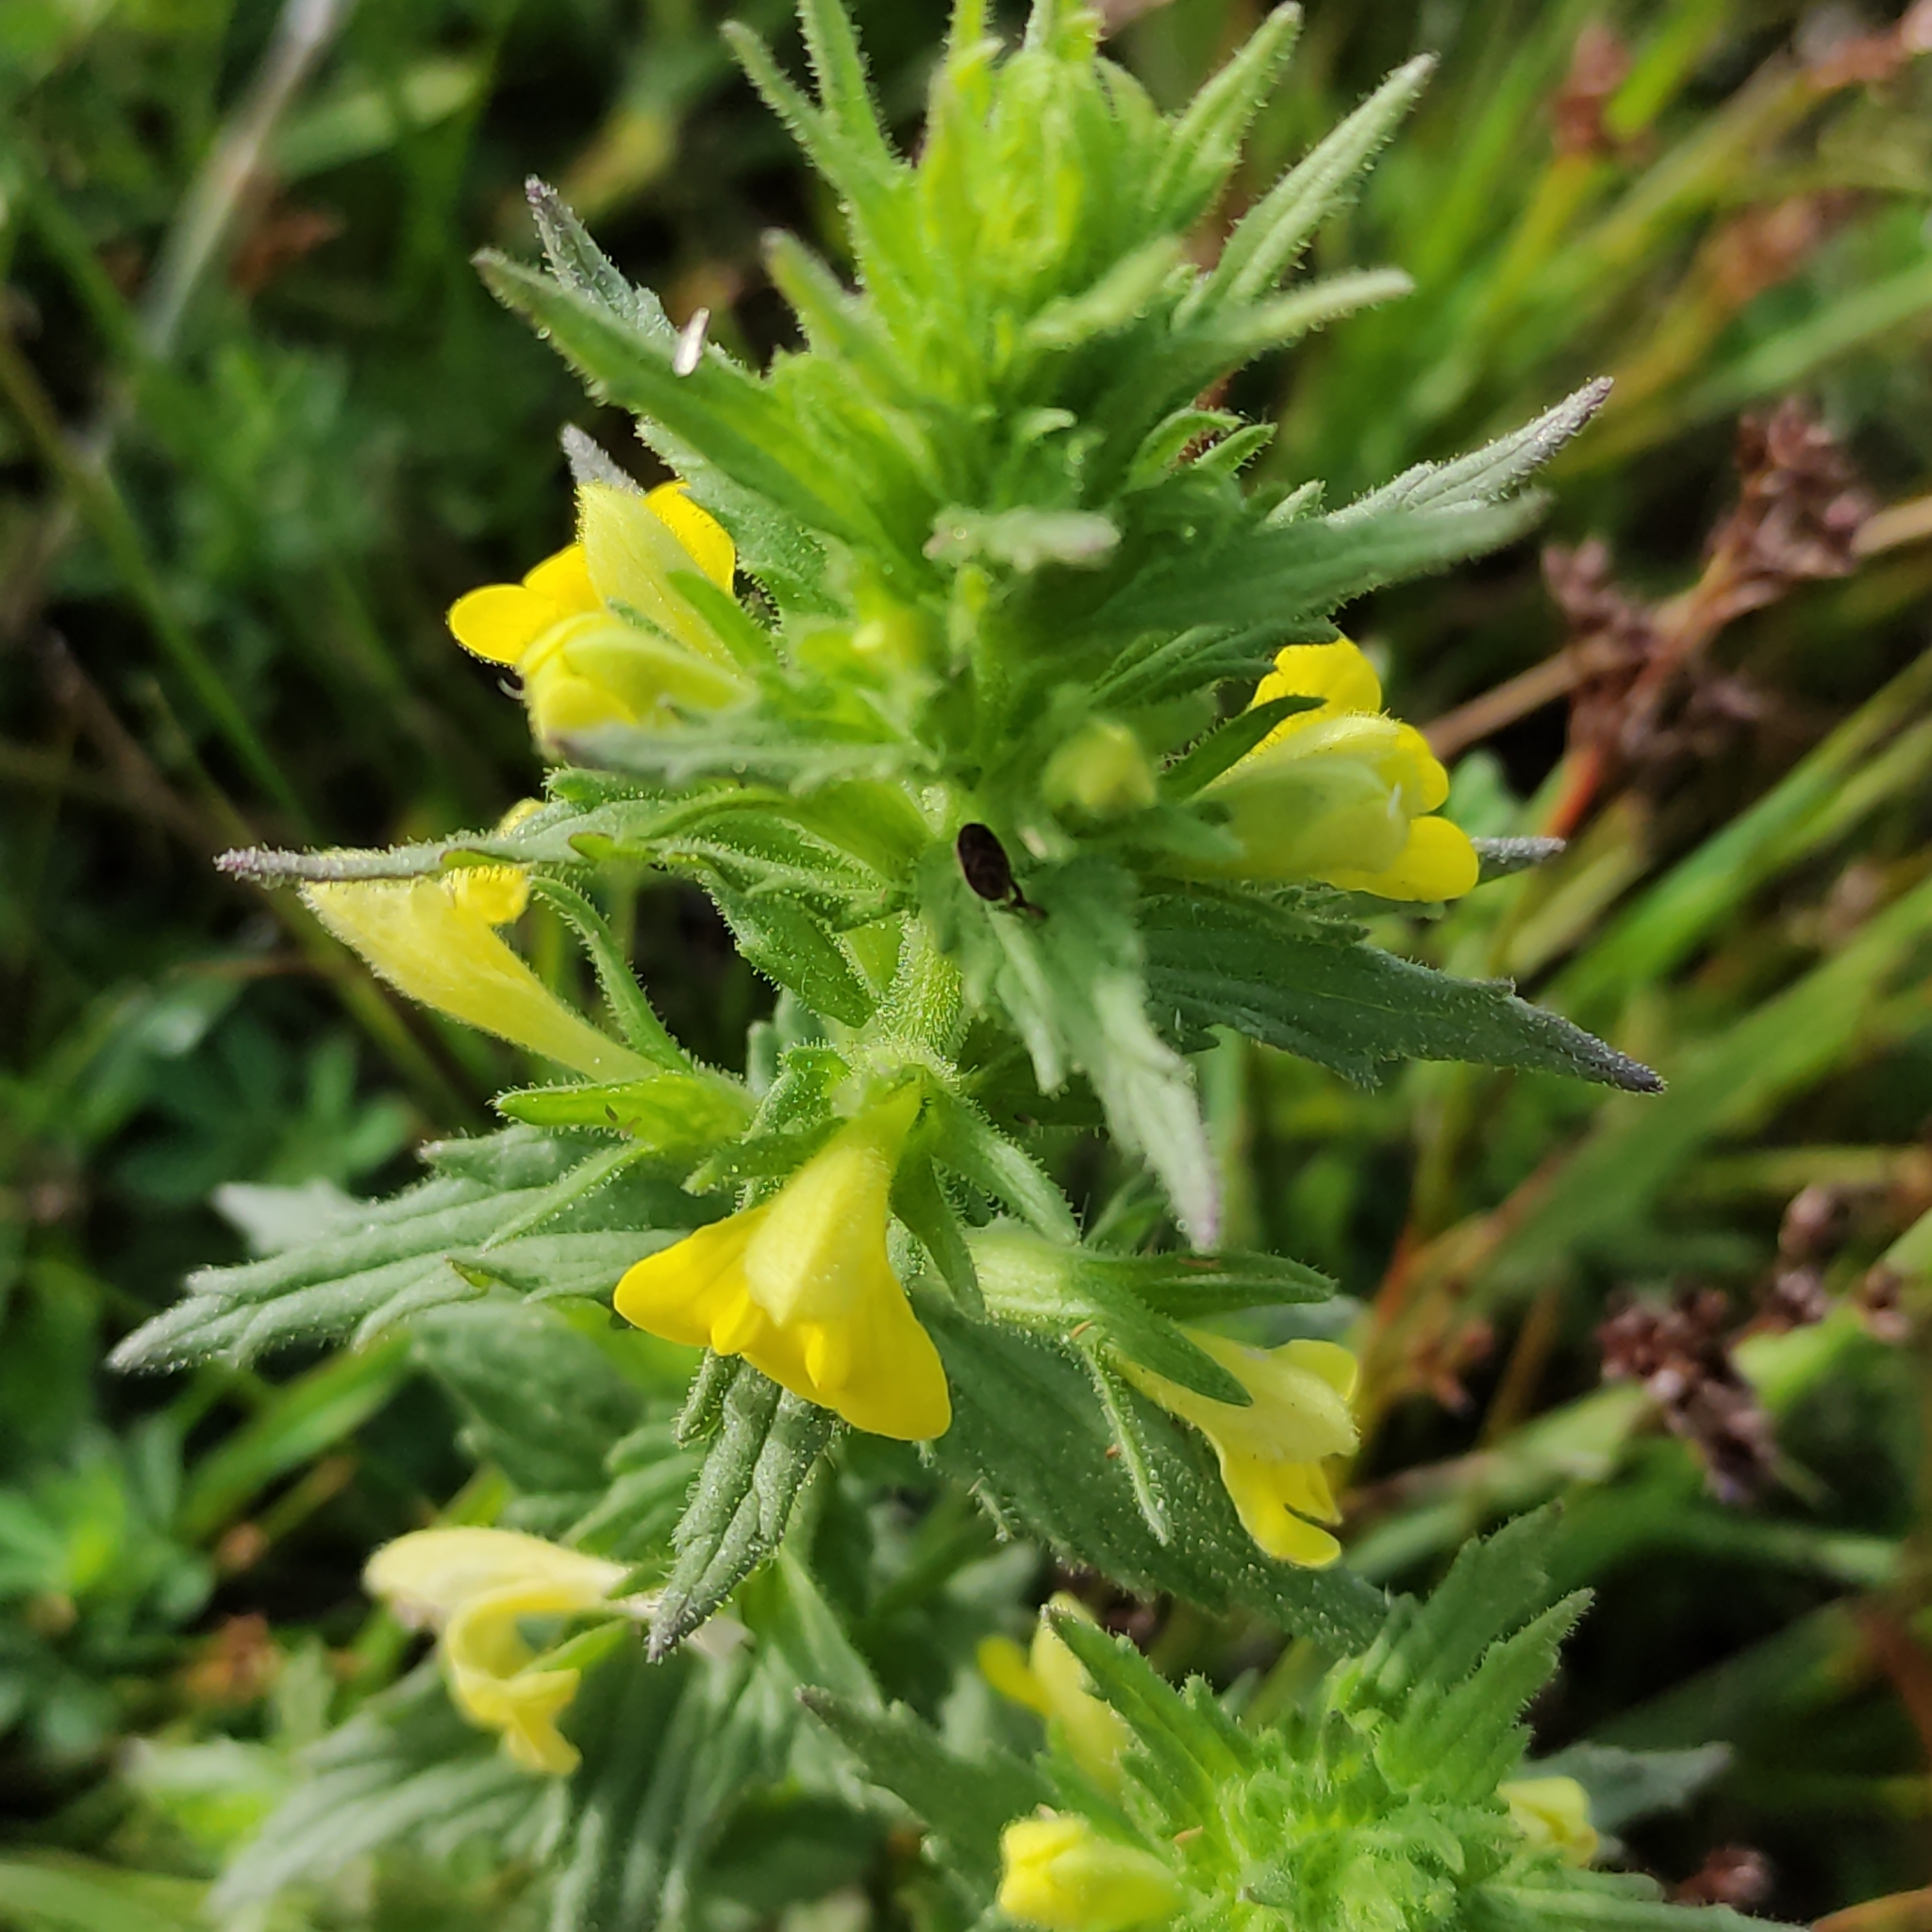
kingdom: Plantae
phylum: Tracheophyta
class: Magnoliopsida
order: Lamiales
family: Orobanchaceae
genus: Bellardia
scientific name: Bellardia viscosa
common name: Sticky parentucellia
